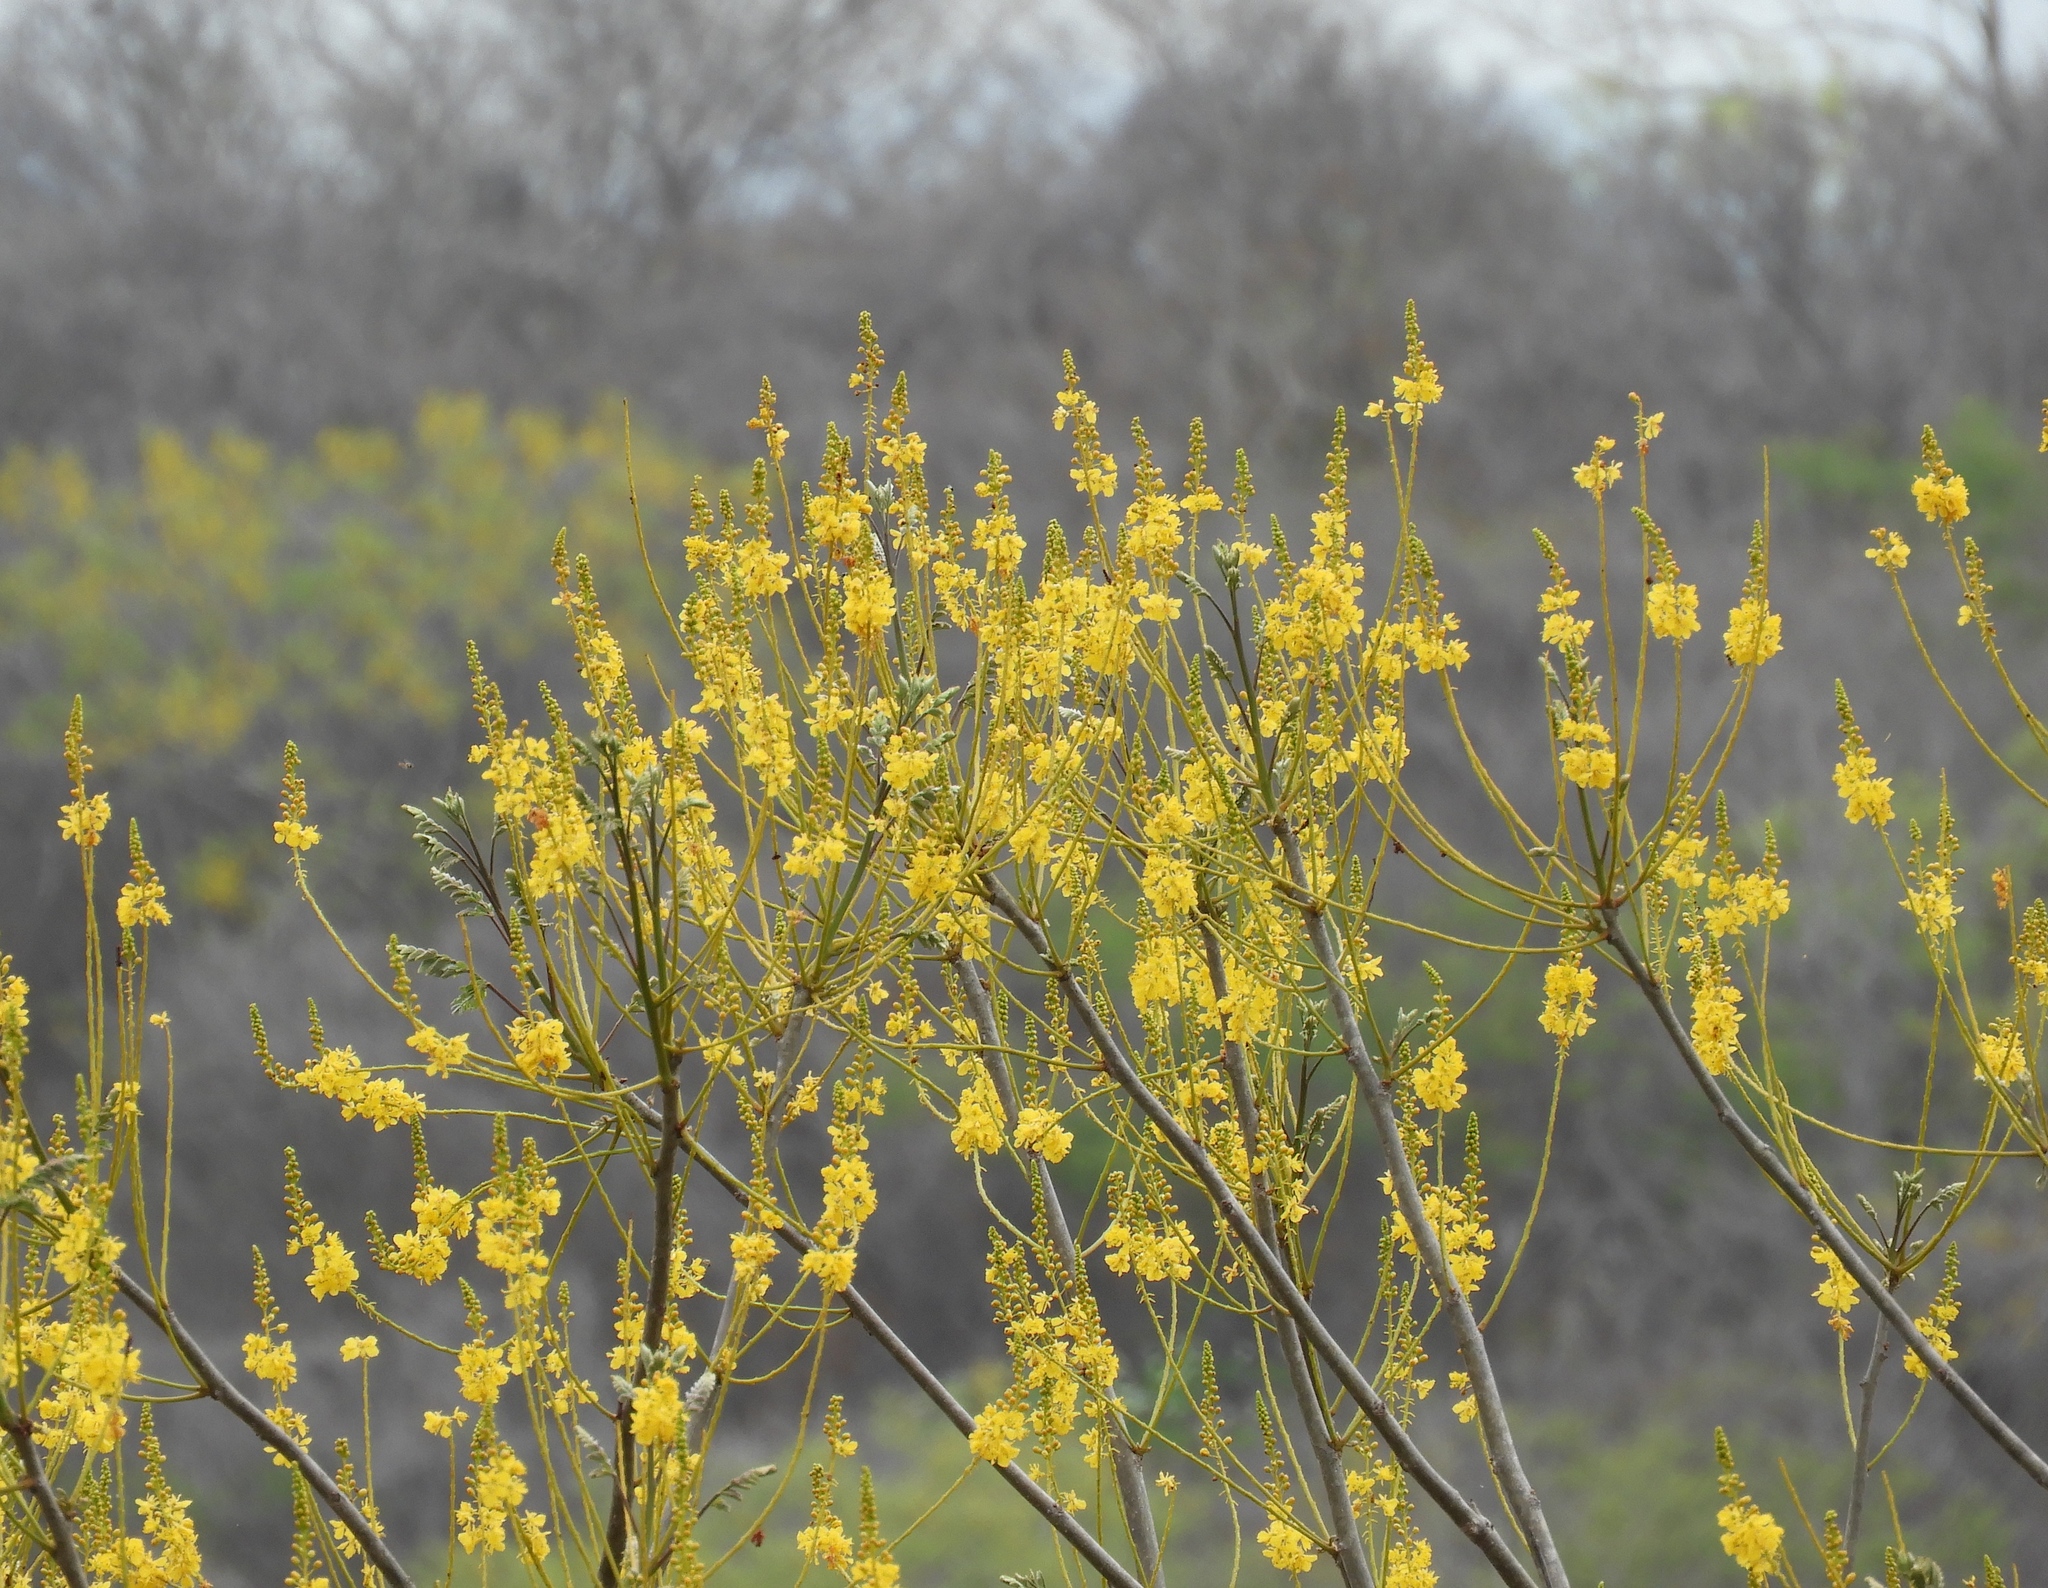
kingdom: Plantae
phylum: Tracheophyta
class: Magnoliopsida
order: Fabales
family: Fabaceae
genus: Conzattia
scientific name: Conzattia sericea
